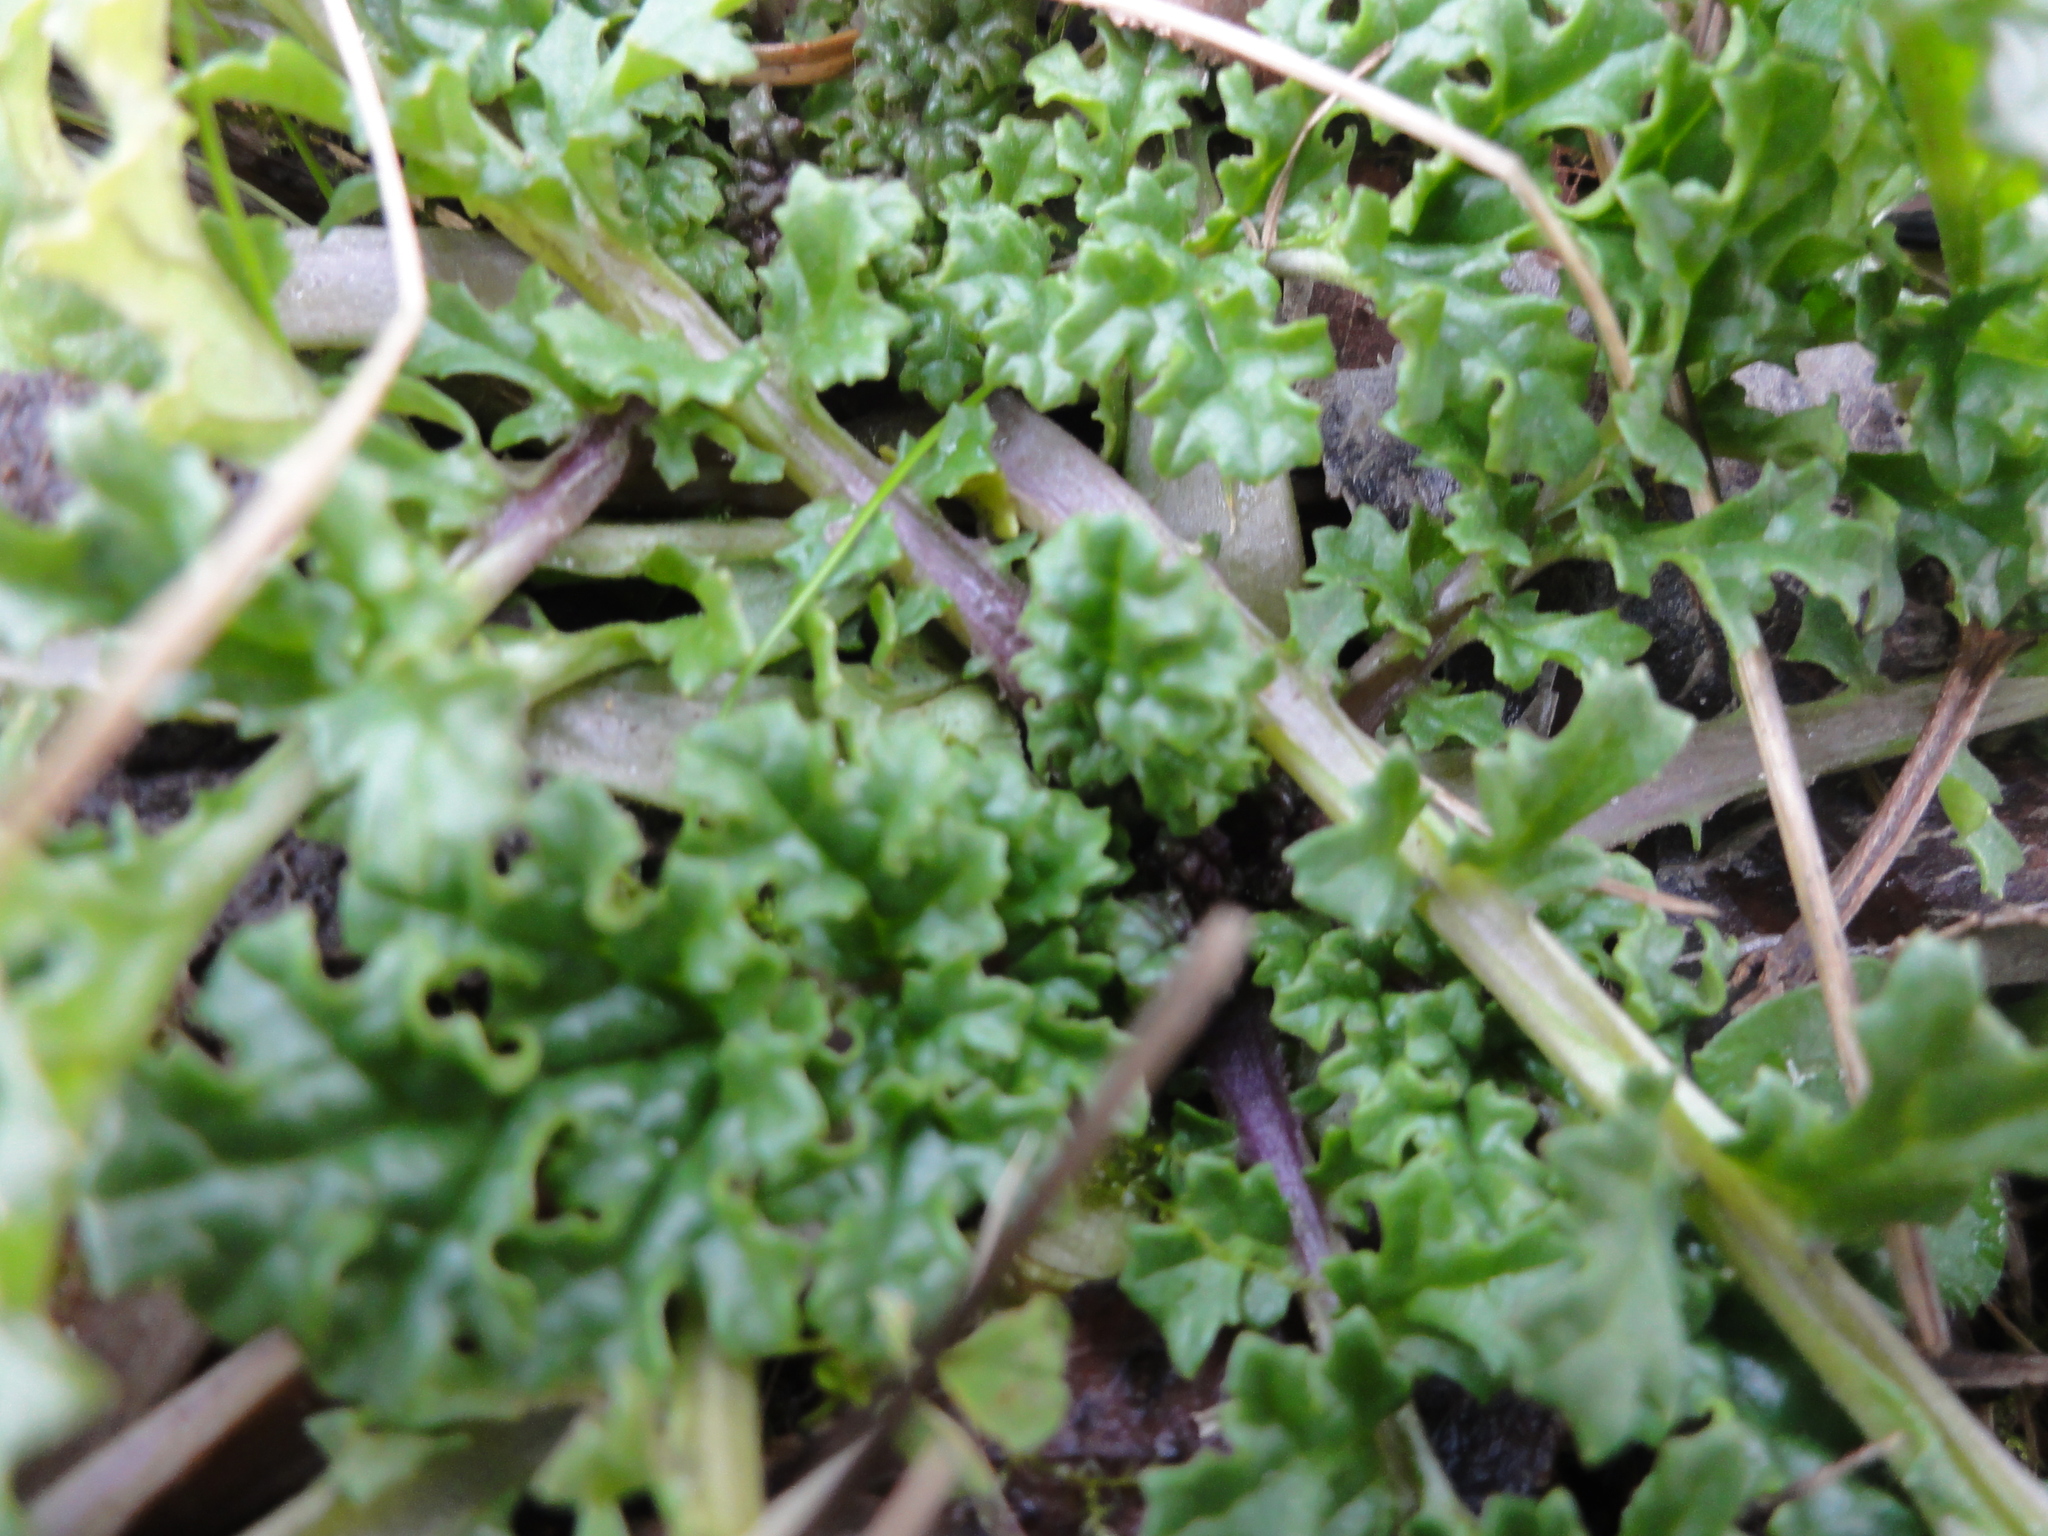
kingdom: Plantae
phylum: Tracheophyta
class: Magnoliopsida
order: Asterales
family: Asteraceae
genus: Jacobaea
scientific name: Jacobaea vulgaris
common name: Stinking willie
